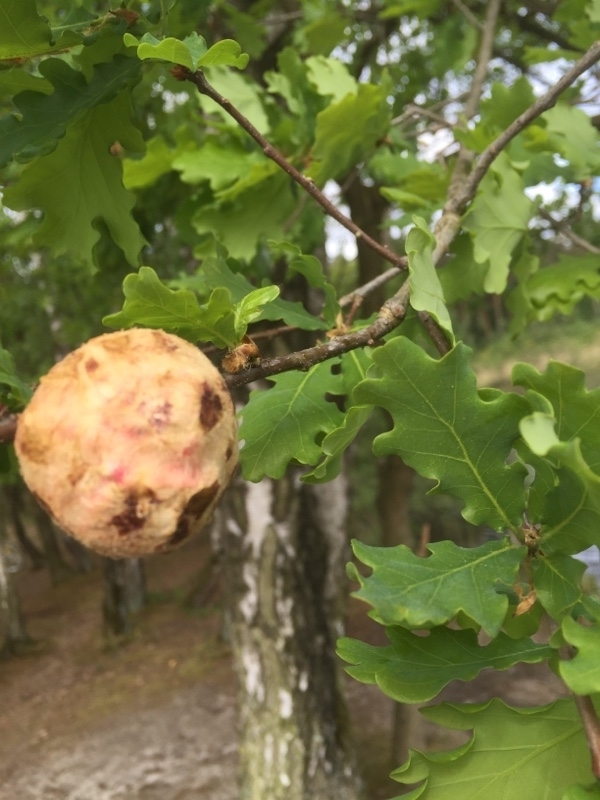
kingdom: Animalia
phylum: Arthropoda
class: Insecta
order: Hymenoptera
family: Cynipidae
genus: Biorhiza
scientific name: Biorhiza pallida
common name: Oak apple
